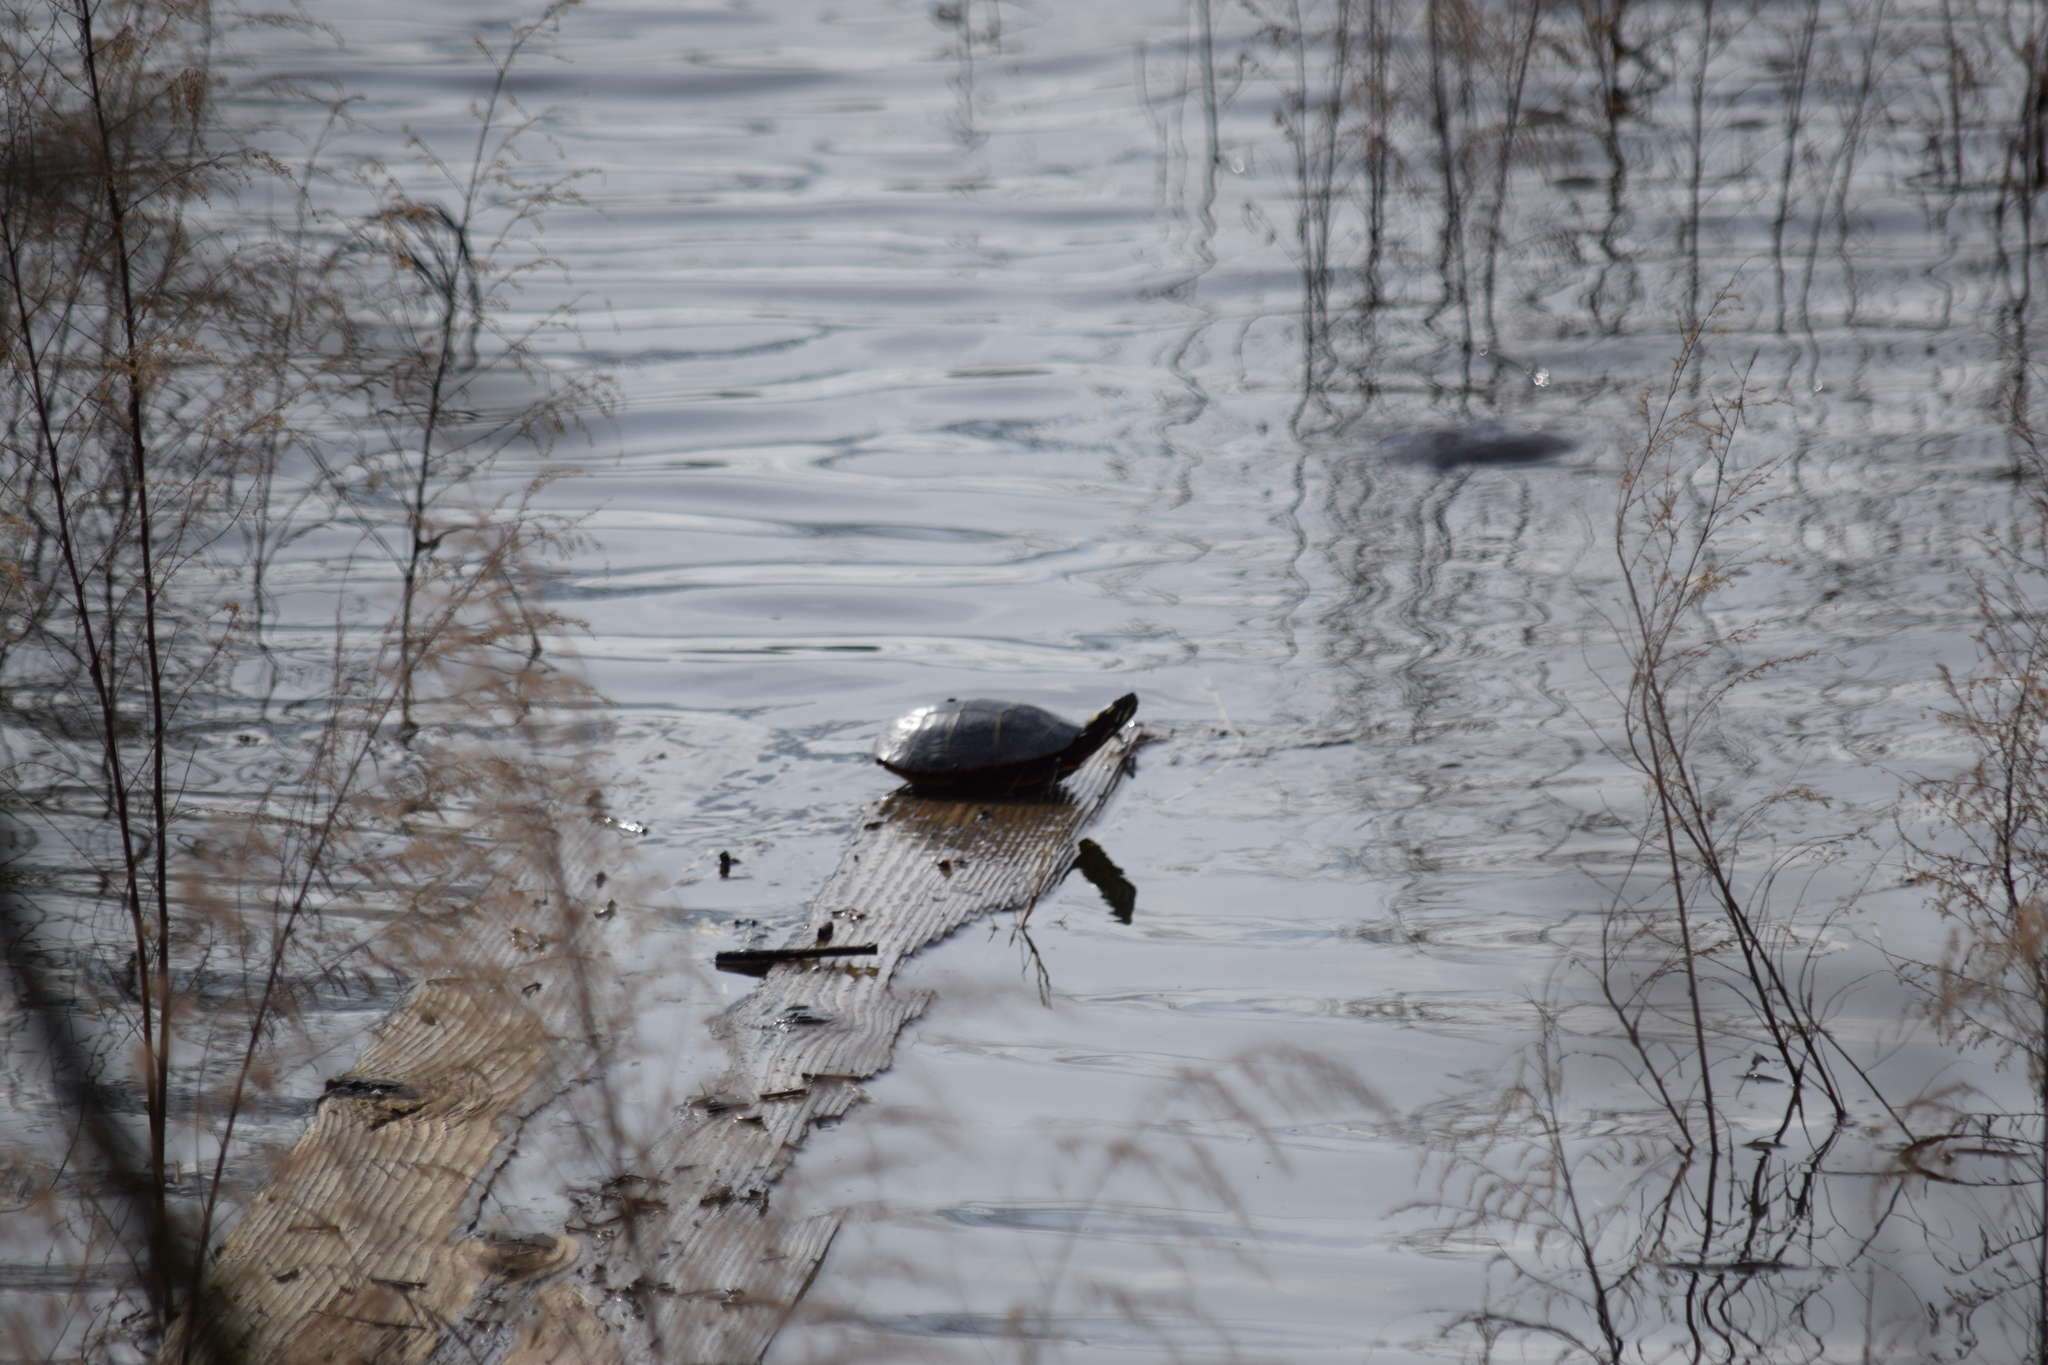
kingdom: Animalia
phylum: Chordata
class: Testudines
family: Emydidae
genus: Chrysemys
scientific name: Chrysemys picta
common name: Painted turtle
